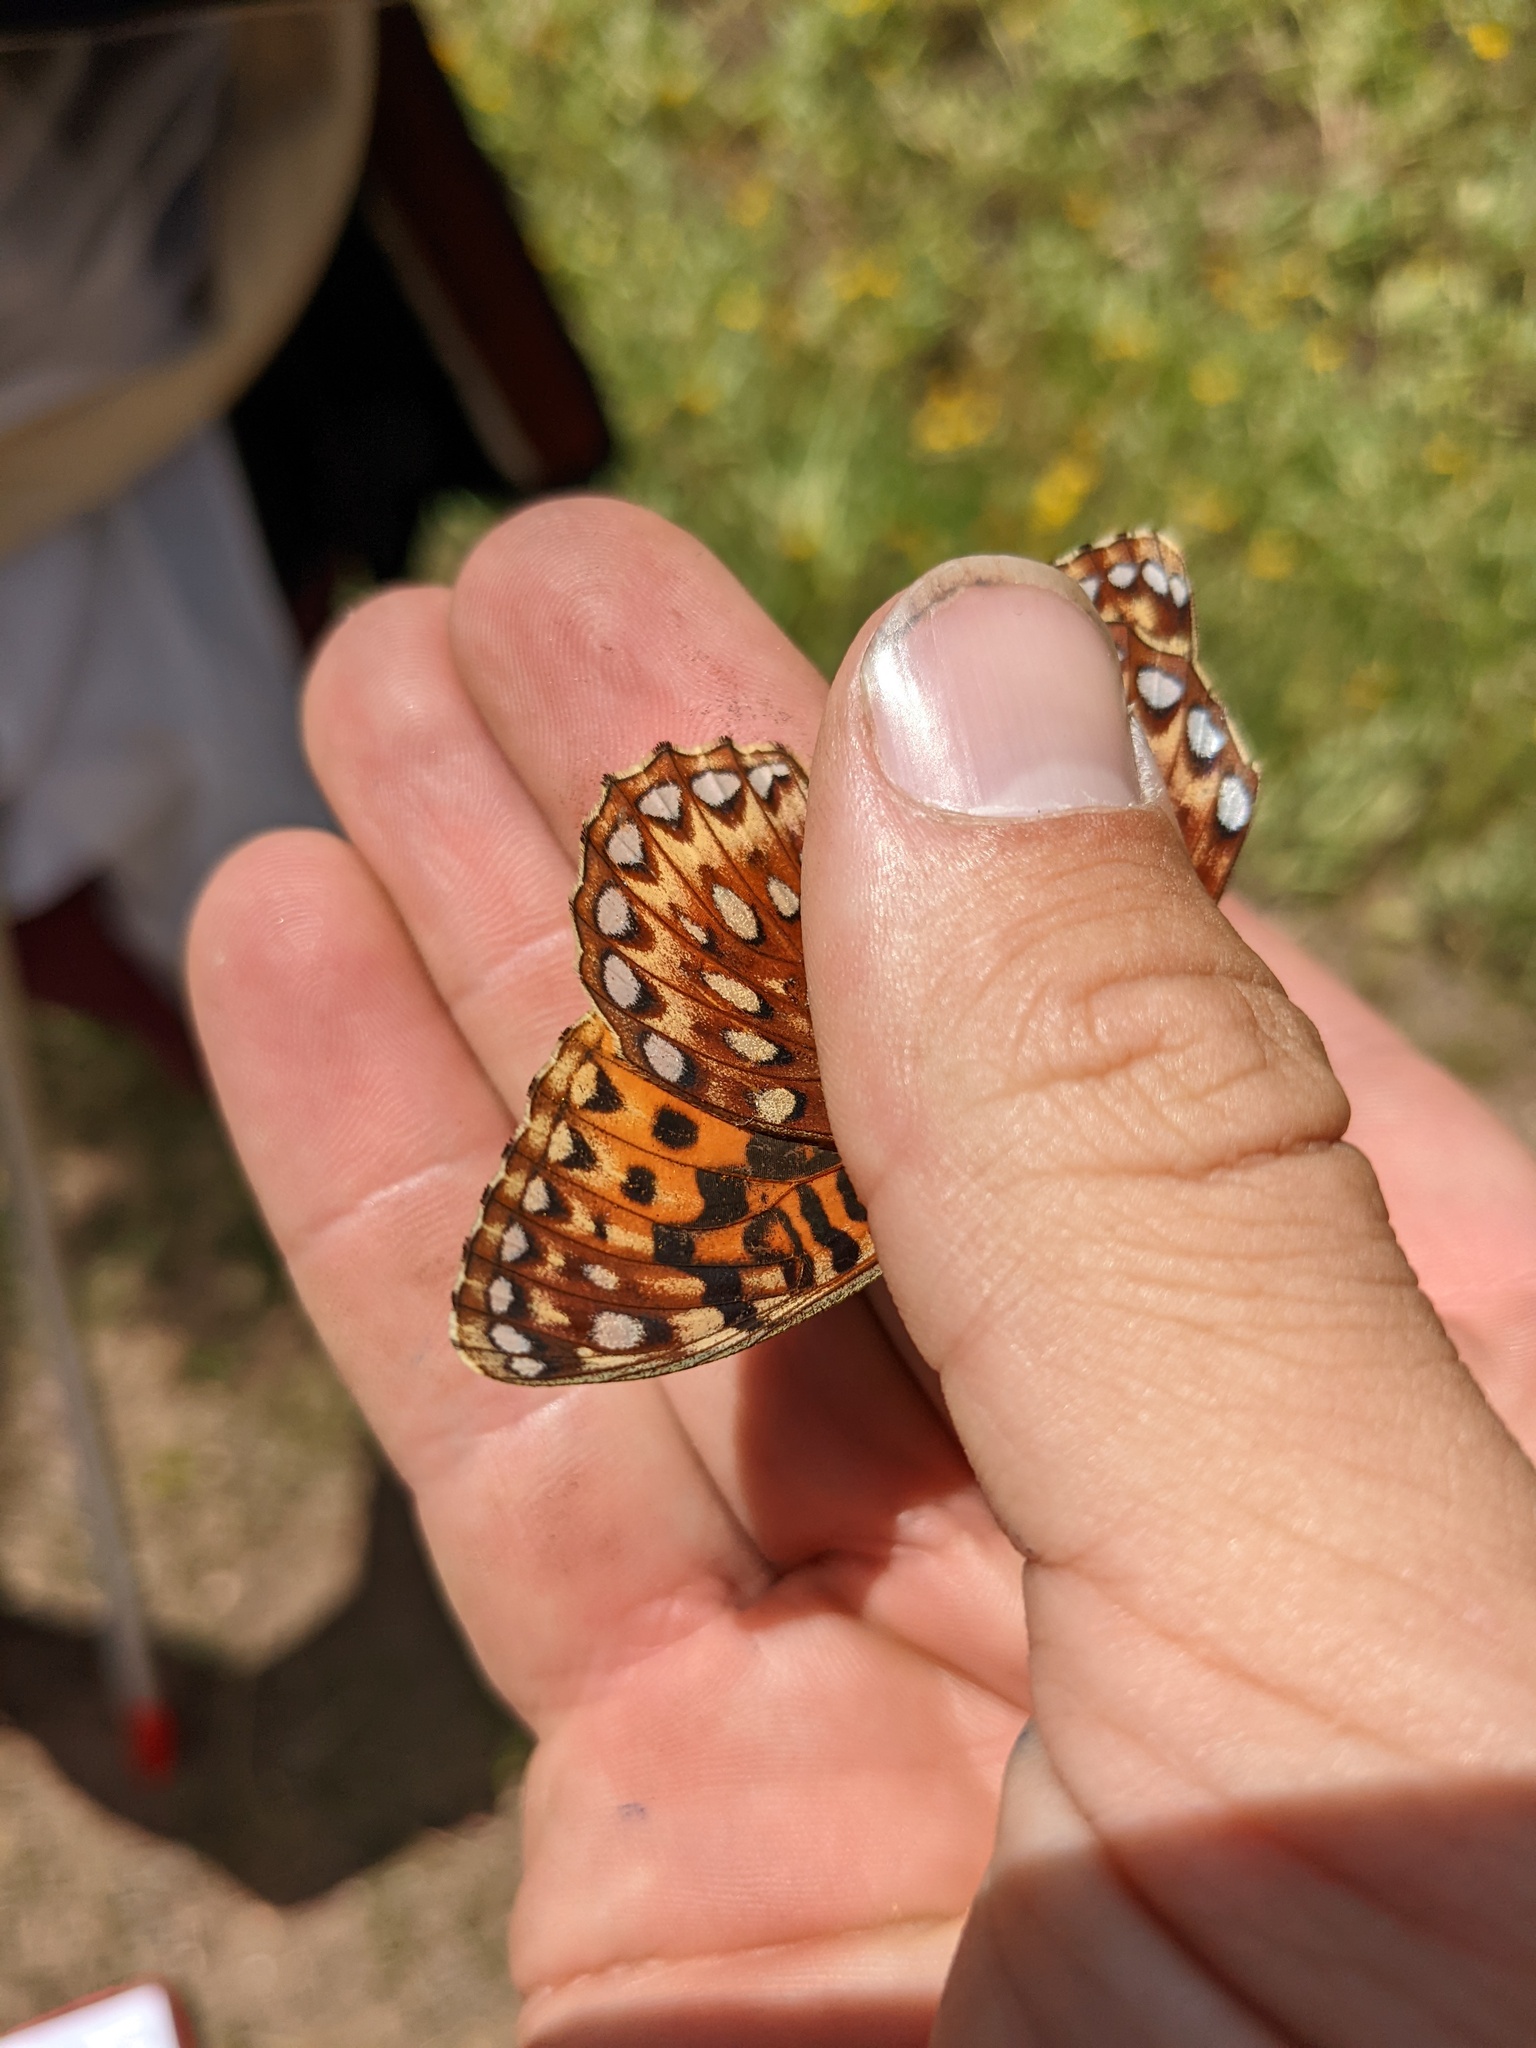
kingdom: Animalia
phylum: Arthropoda
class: Insecta
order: Lepidoptera
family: Nymphalidae
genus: Speyeria
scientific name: Speyeria atlantis
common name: Atlantis fritillary
